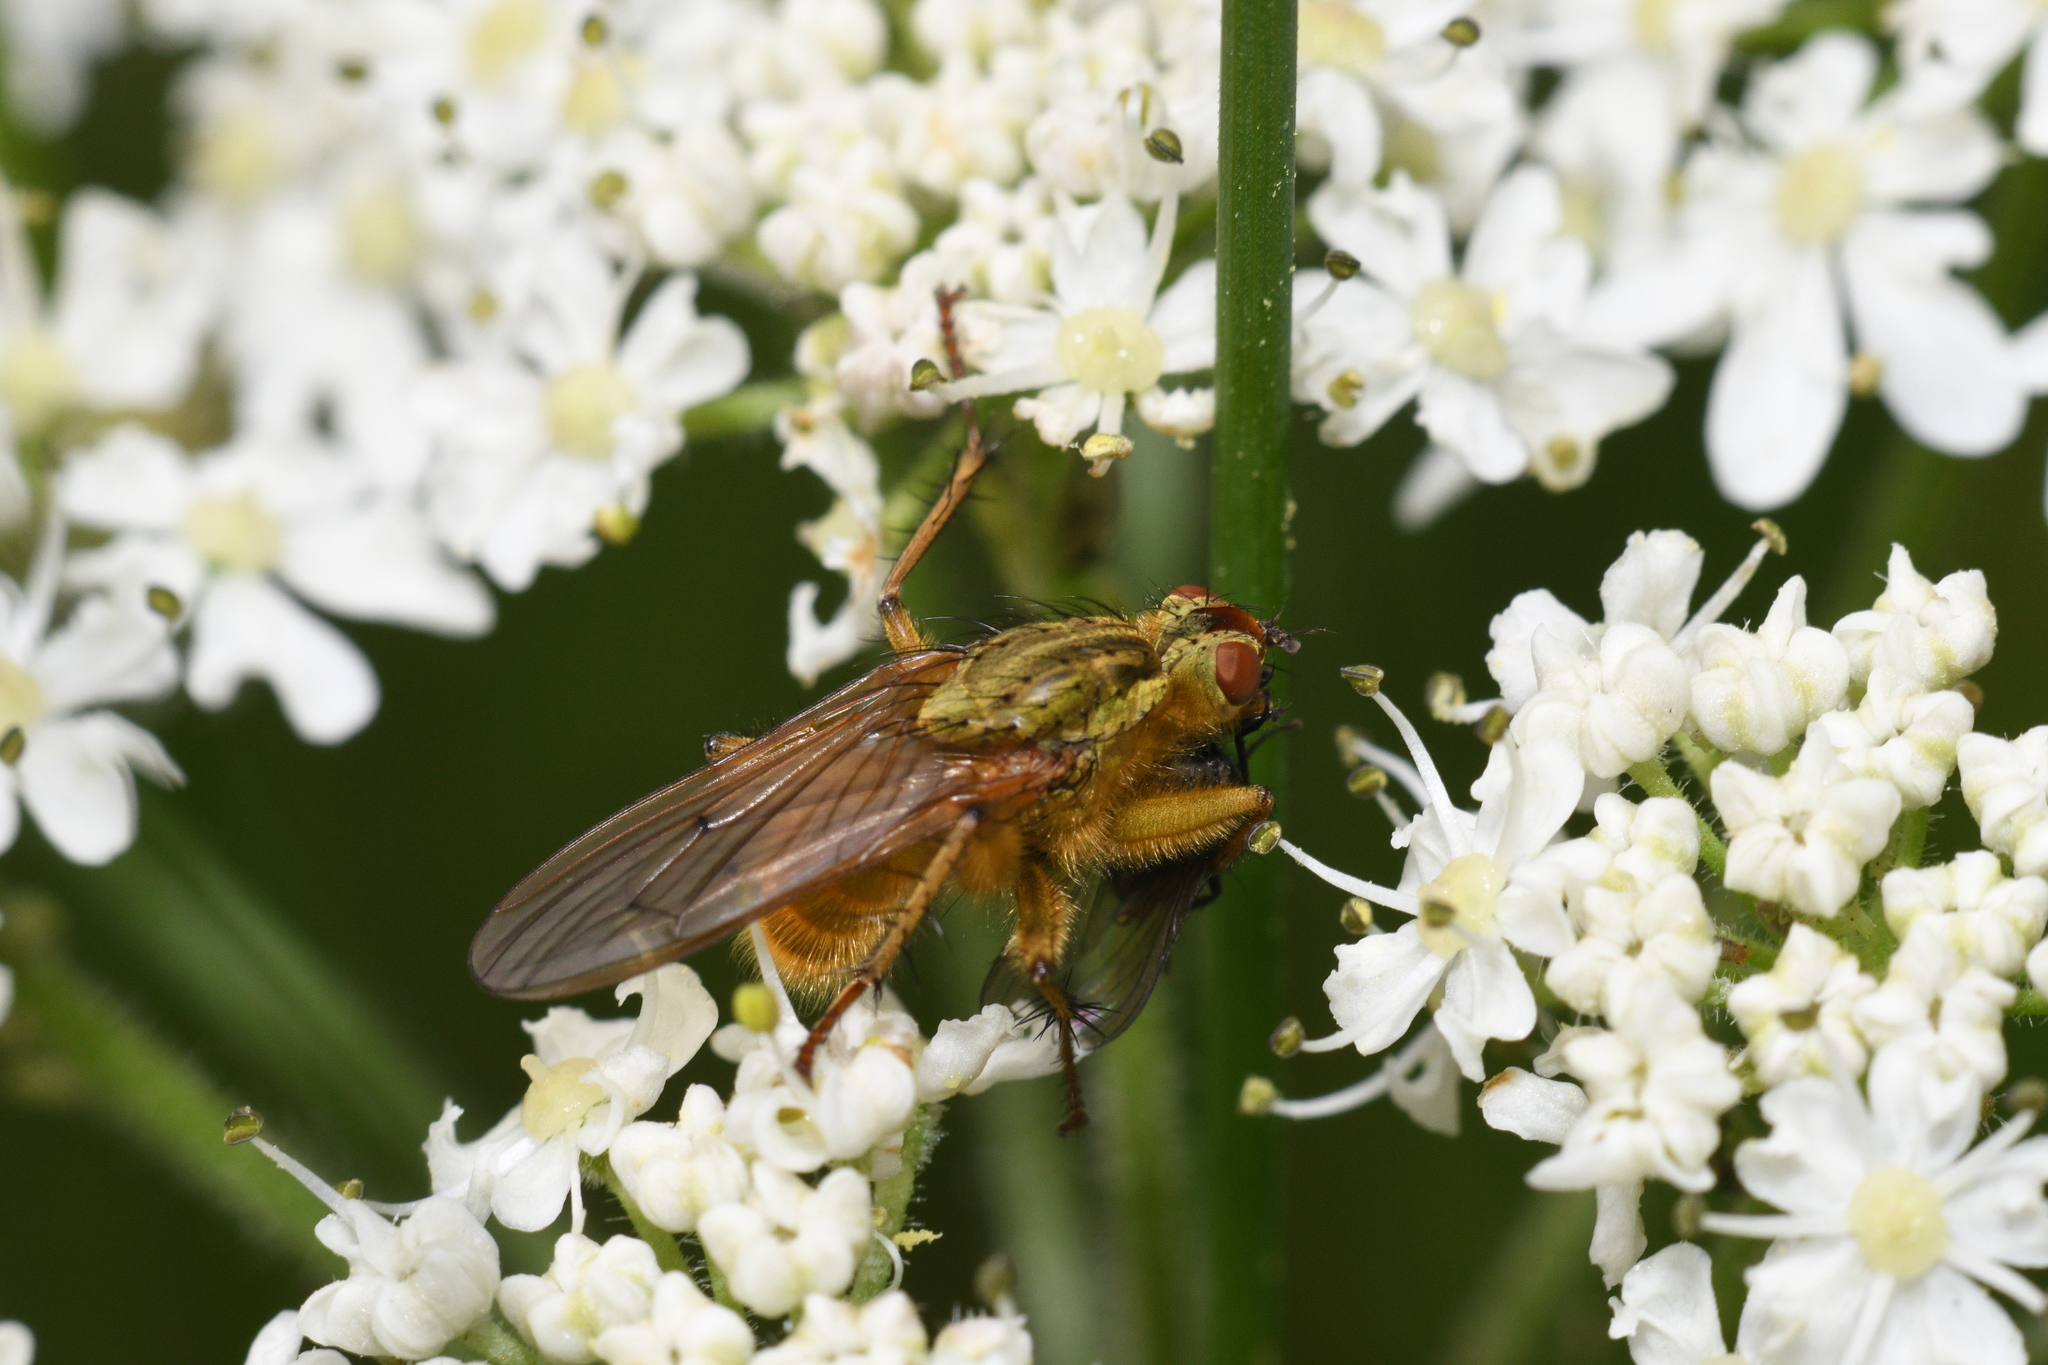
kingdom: Animalia
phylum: Arthropoda
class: Insecta
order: Diptera
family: Scathophagidae
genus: Scathophaga
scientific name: Scathophaga stercoraria
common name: Yellow dung fly
